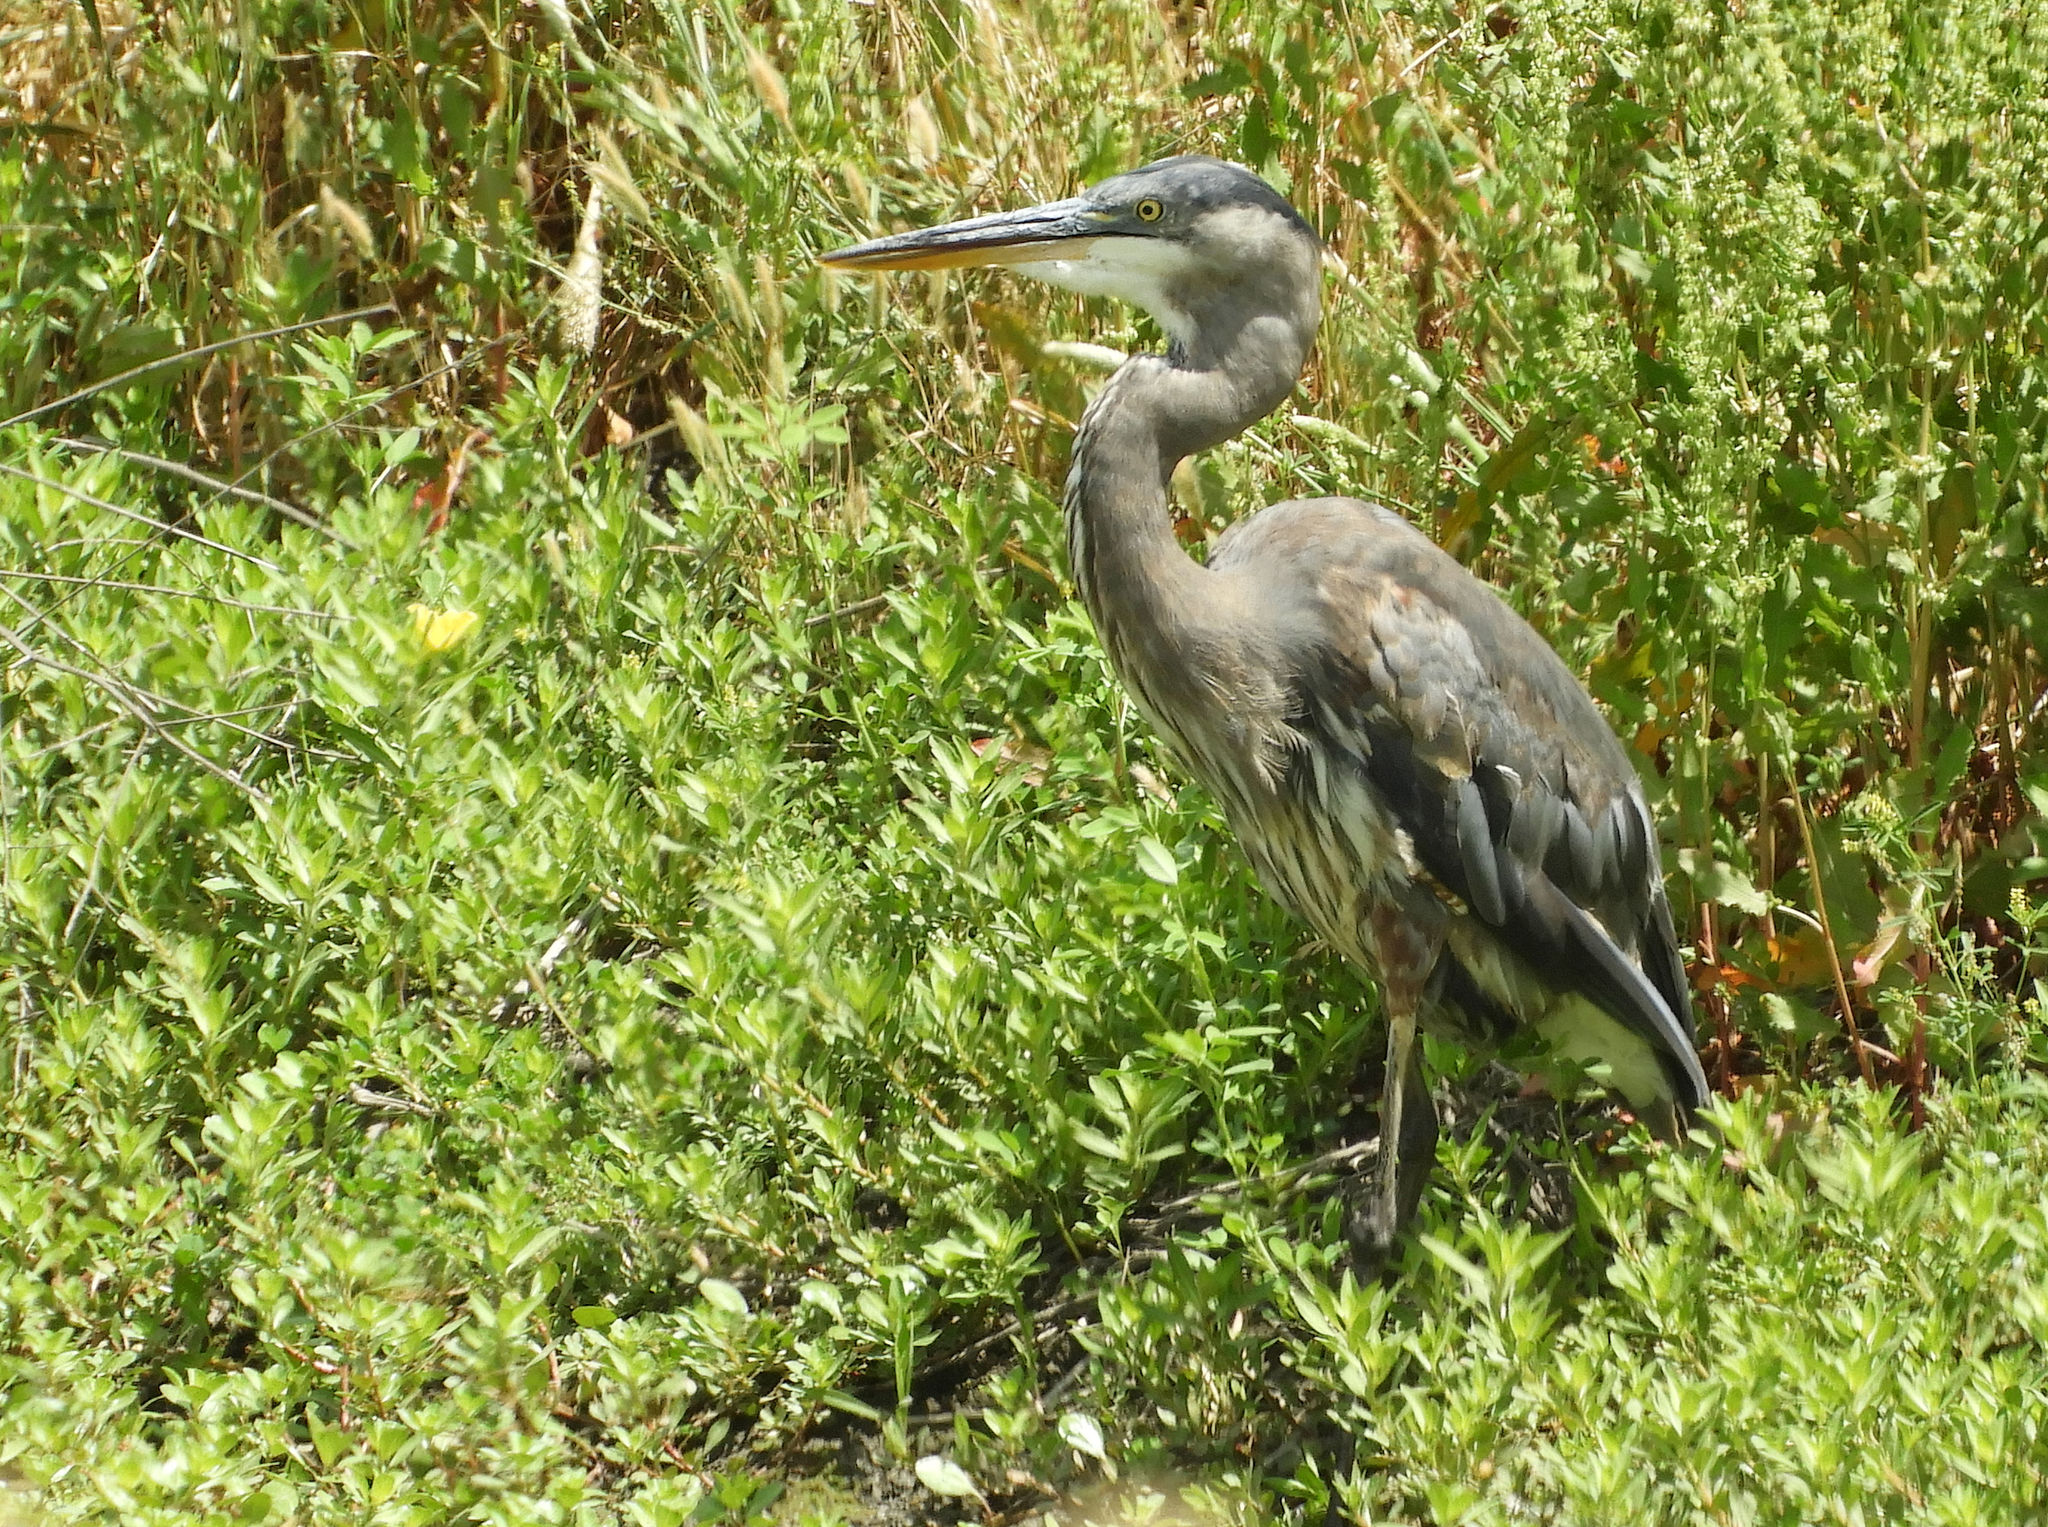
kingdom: Animalia
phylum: Chordata
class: Aves
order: Pelecaniformes
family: Ardeidae
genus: Ardea
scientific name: Ardea herodias
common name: Great blue heron
